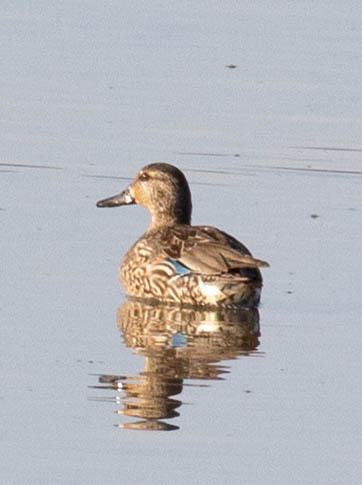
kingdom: Animalia
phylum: Chordata
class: Aves
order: Anseriformes
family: Anatidae
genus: Anas
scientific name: Anas crecca
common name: Eurasian teal
